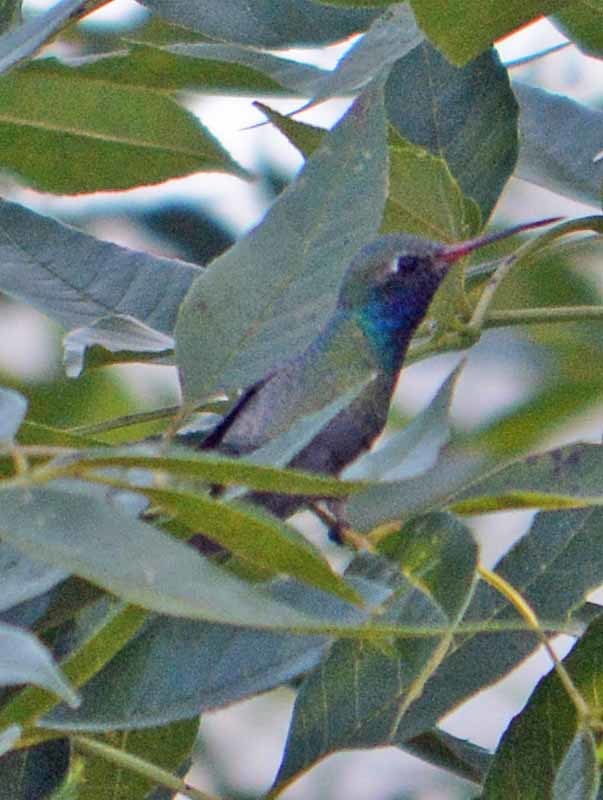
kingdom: Animalia
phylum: Chordata
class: Aves
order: Apodiformes
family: Trochilidae
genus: Cynanthus
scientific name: Cynanthus latirostris
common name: Broad-billed hummingbird
